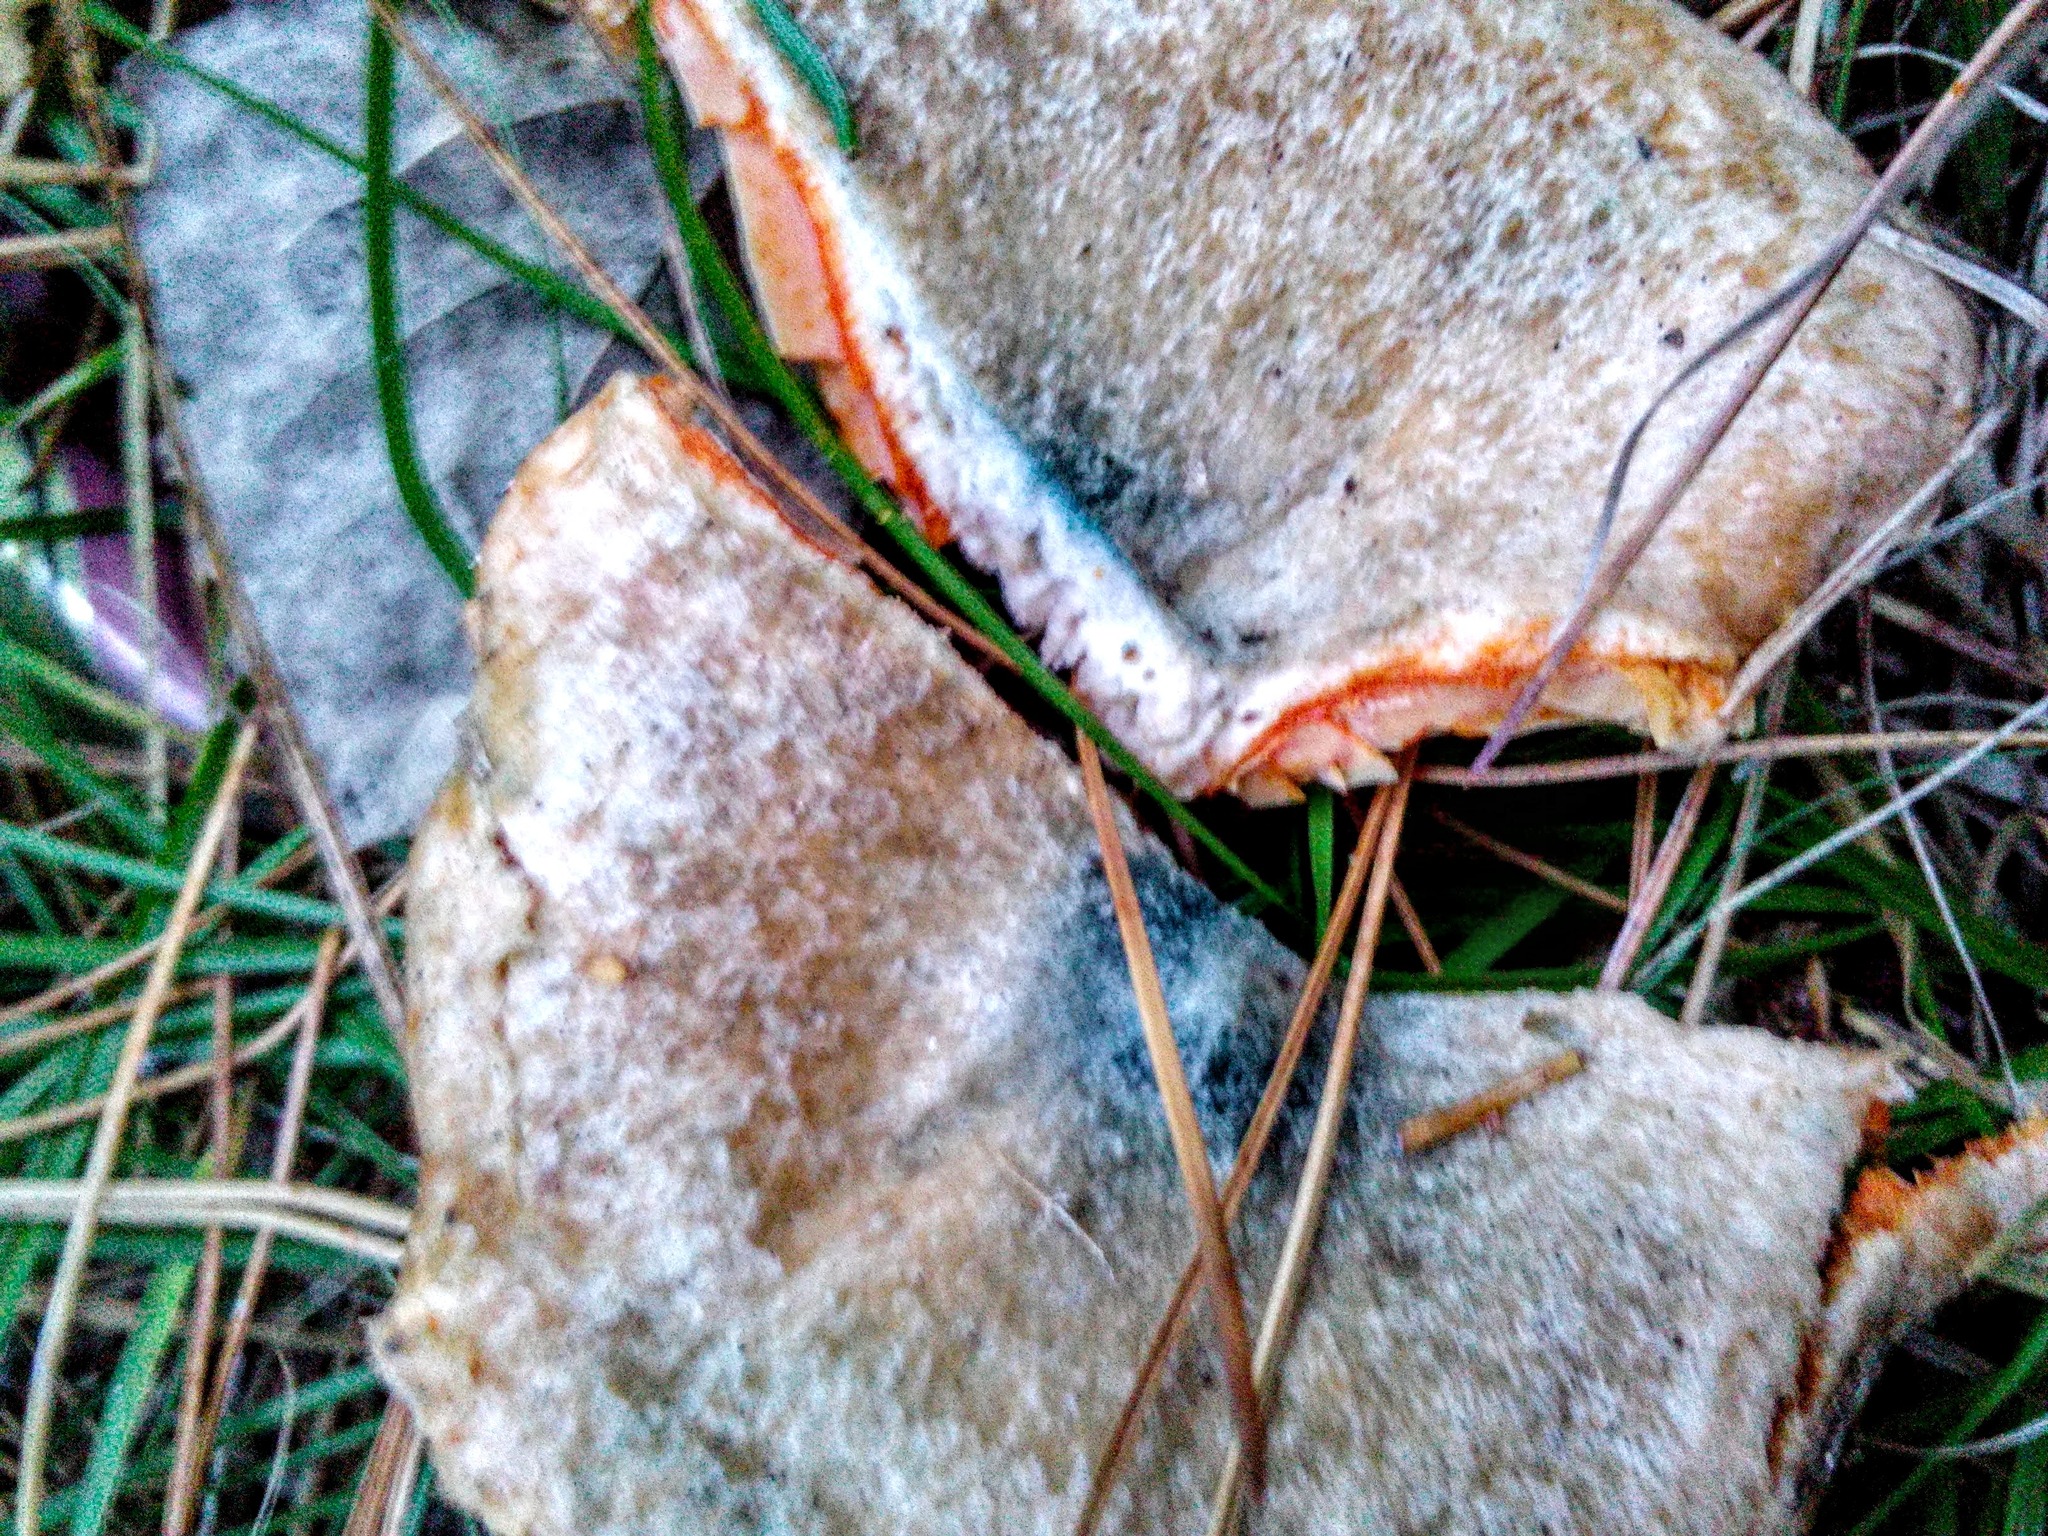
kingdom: Fungi
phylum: Basidiomycota
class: Agaricomycetes
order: Russulales
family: Russulaceae
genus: Lactarius
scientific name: Lactarius deliciosus
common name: Saffron milk-cap
